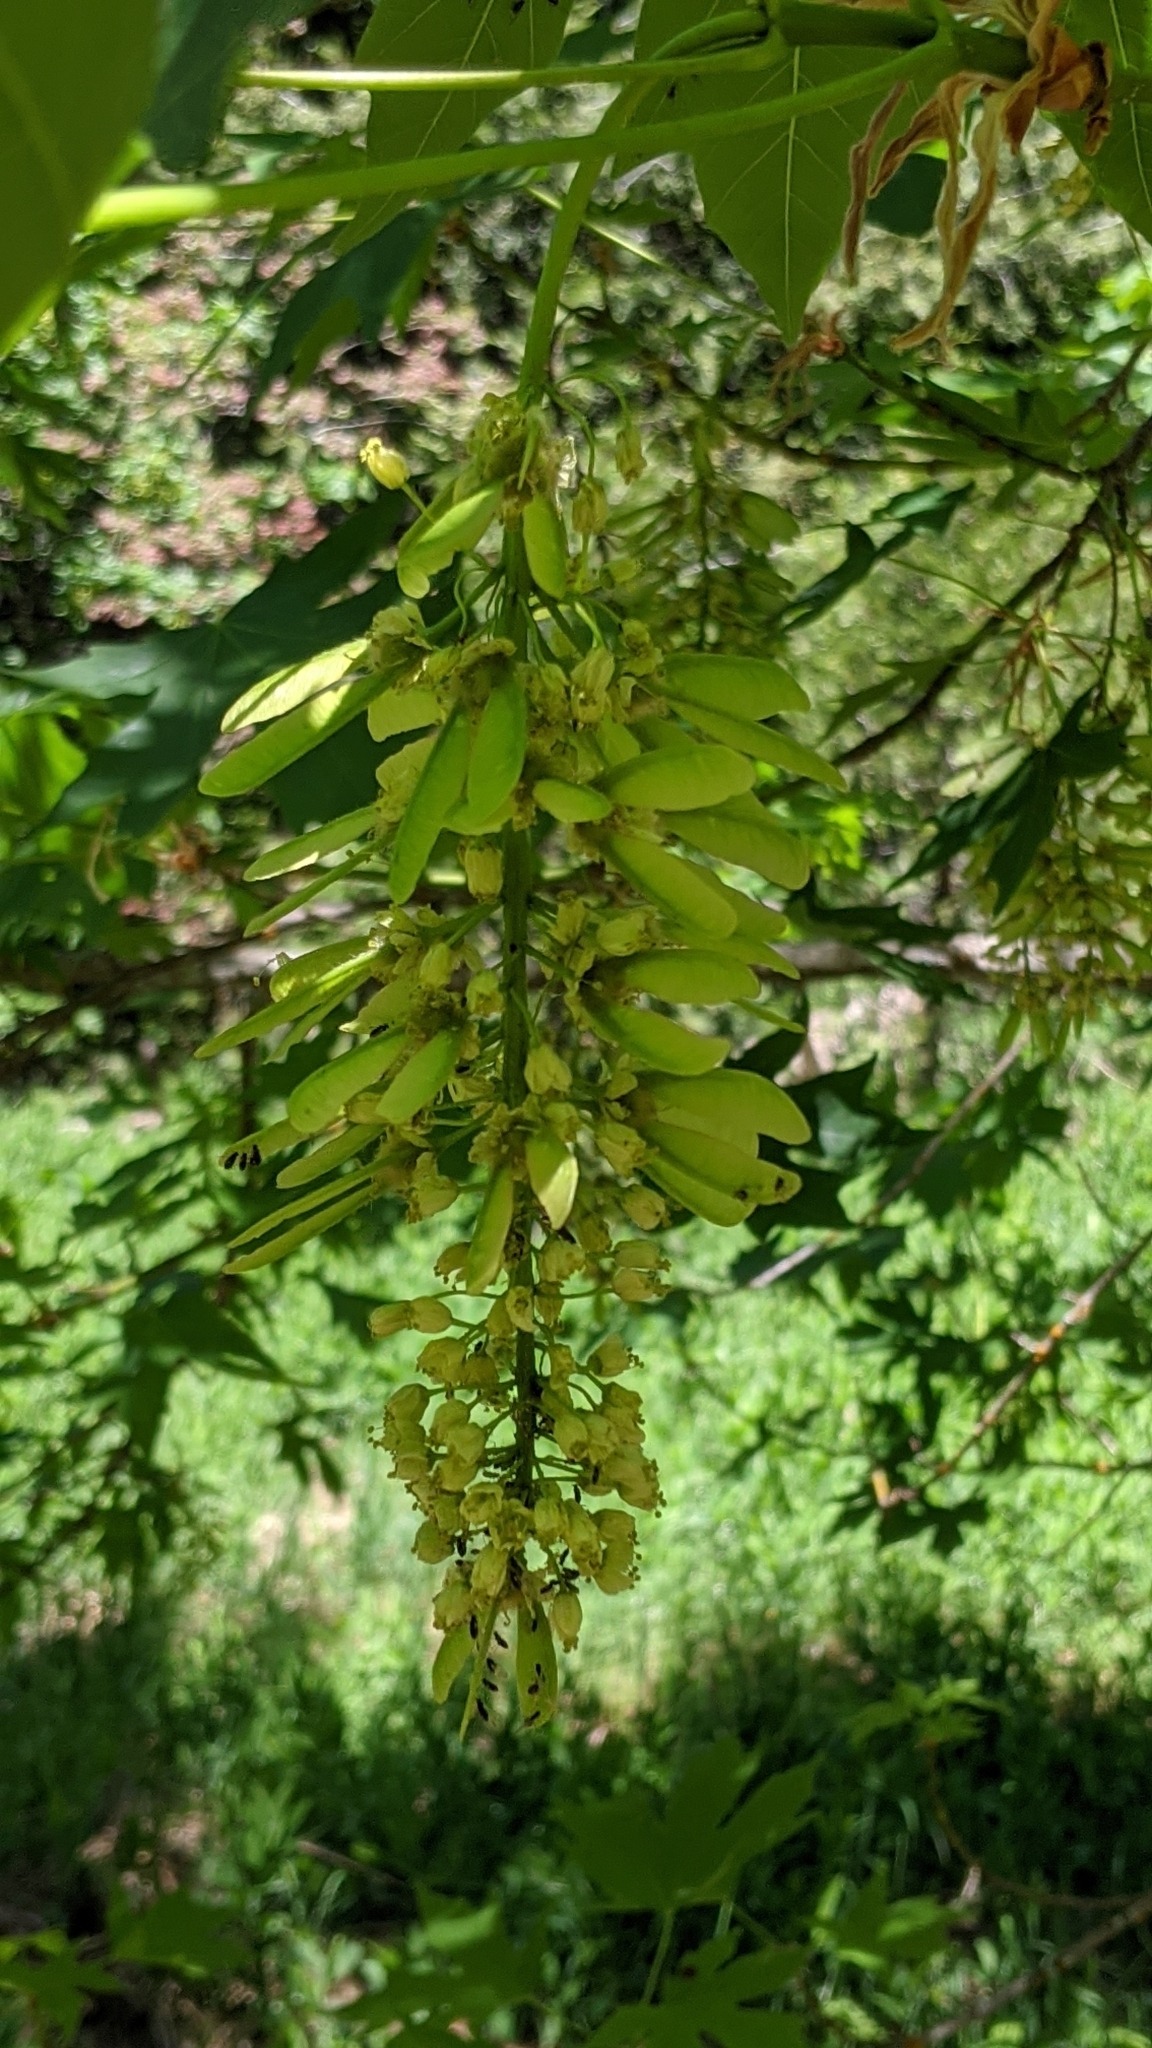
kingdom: Plantae
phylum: Tracheophyta
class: Magnoliopsida
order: Sapindales
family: Sapindaceae
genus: Acer
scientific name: Acer macrophyllum
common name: Oregon maple
